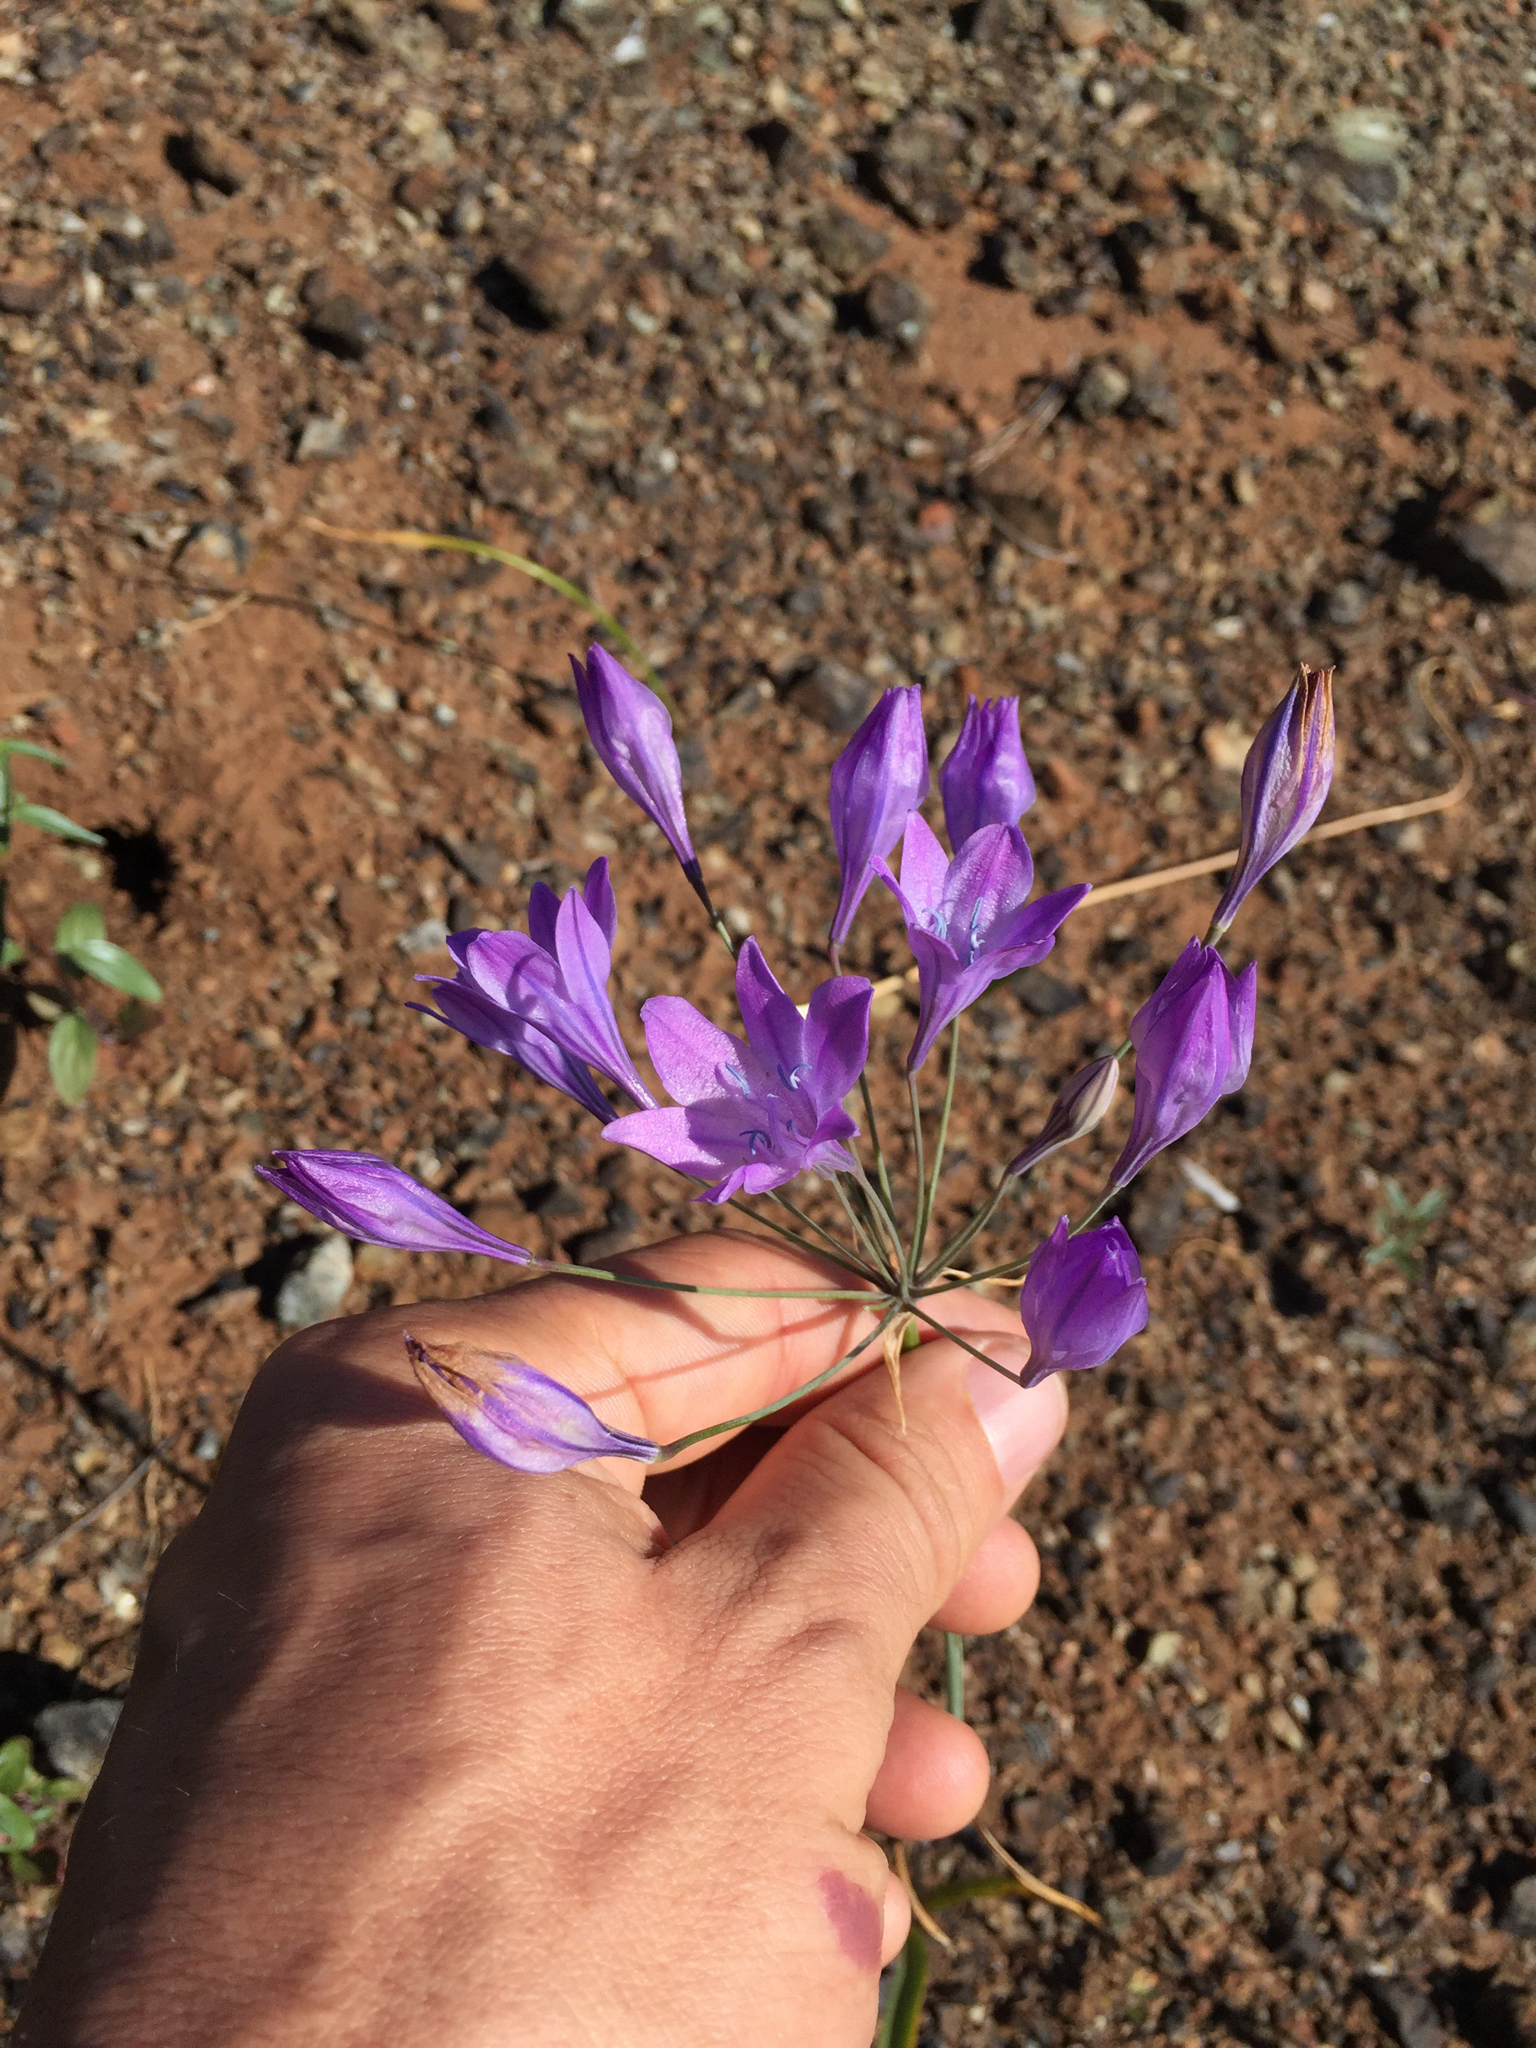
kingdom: Plantae
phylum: Tracheophyta
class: Liliopsida
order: Asparagales
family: Asparagaceae
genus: Triteleia
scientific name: Triteleia laxa
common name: Triplet-lily
